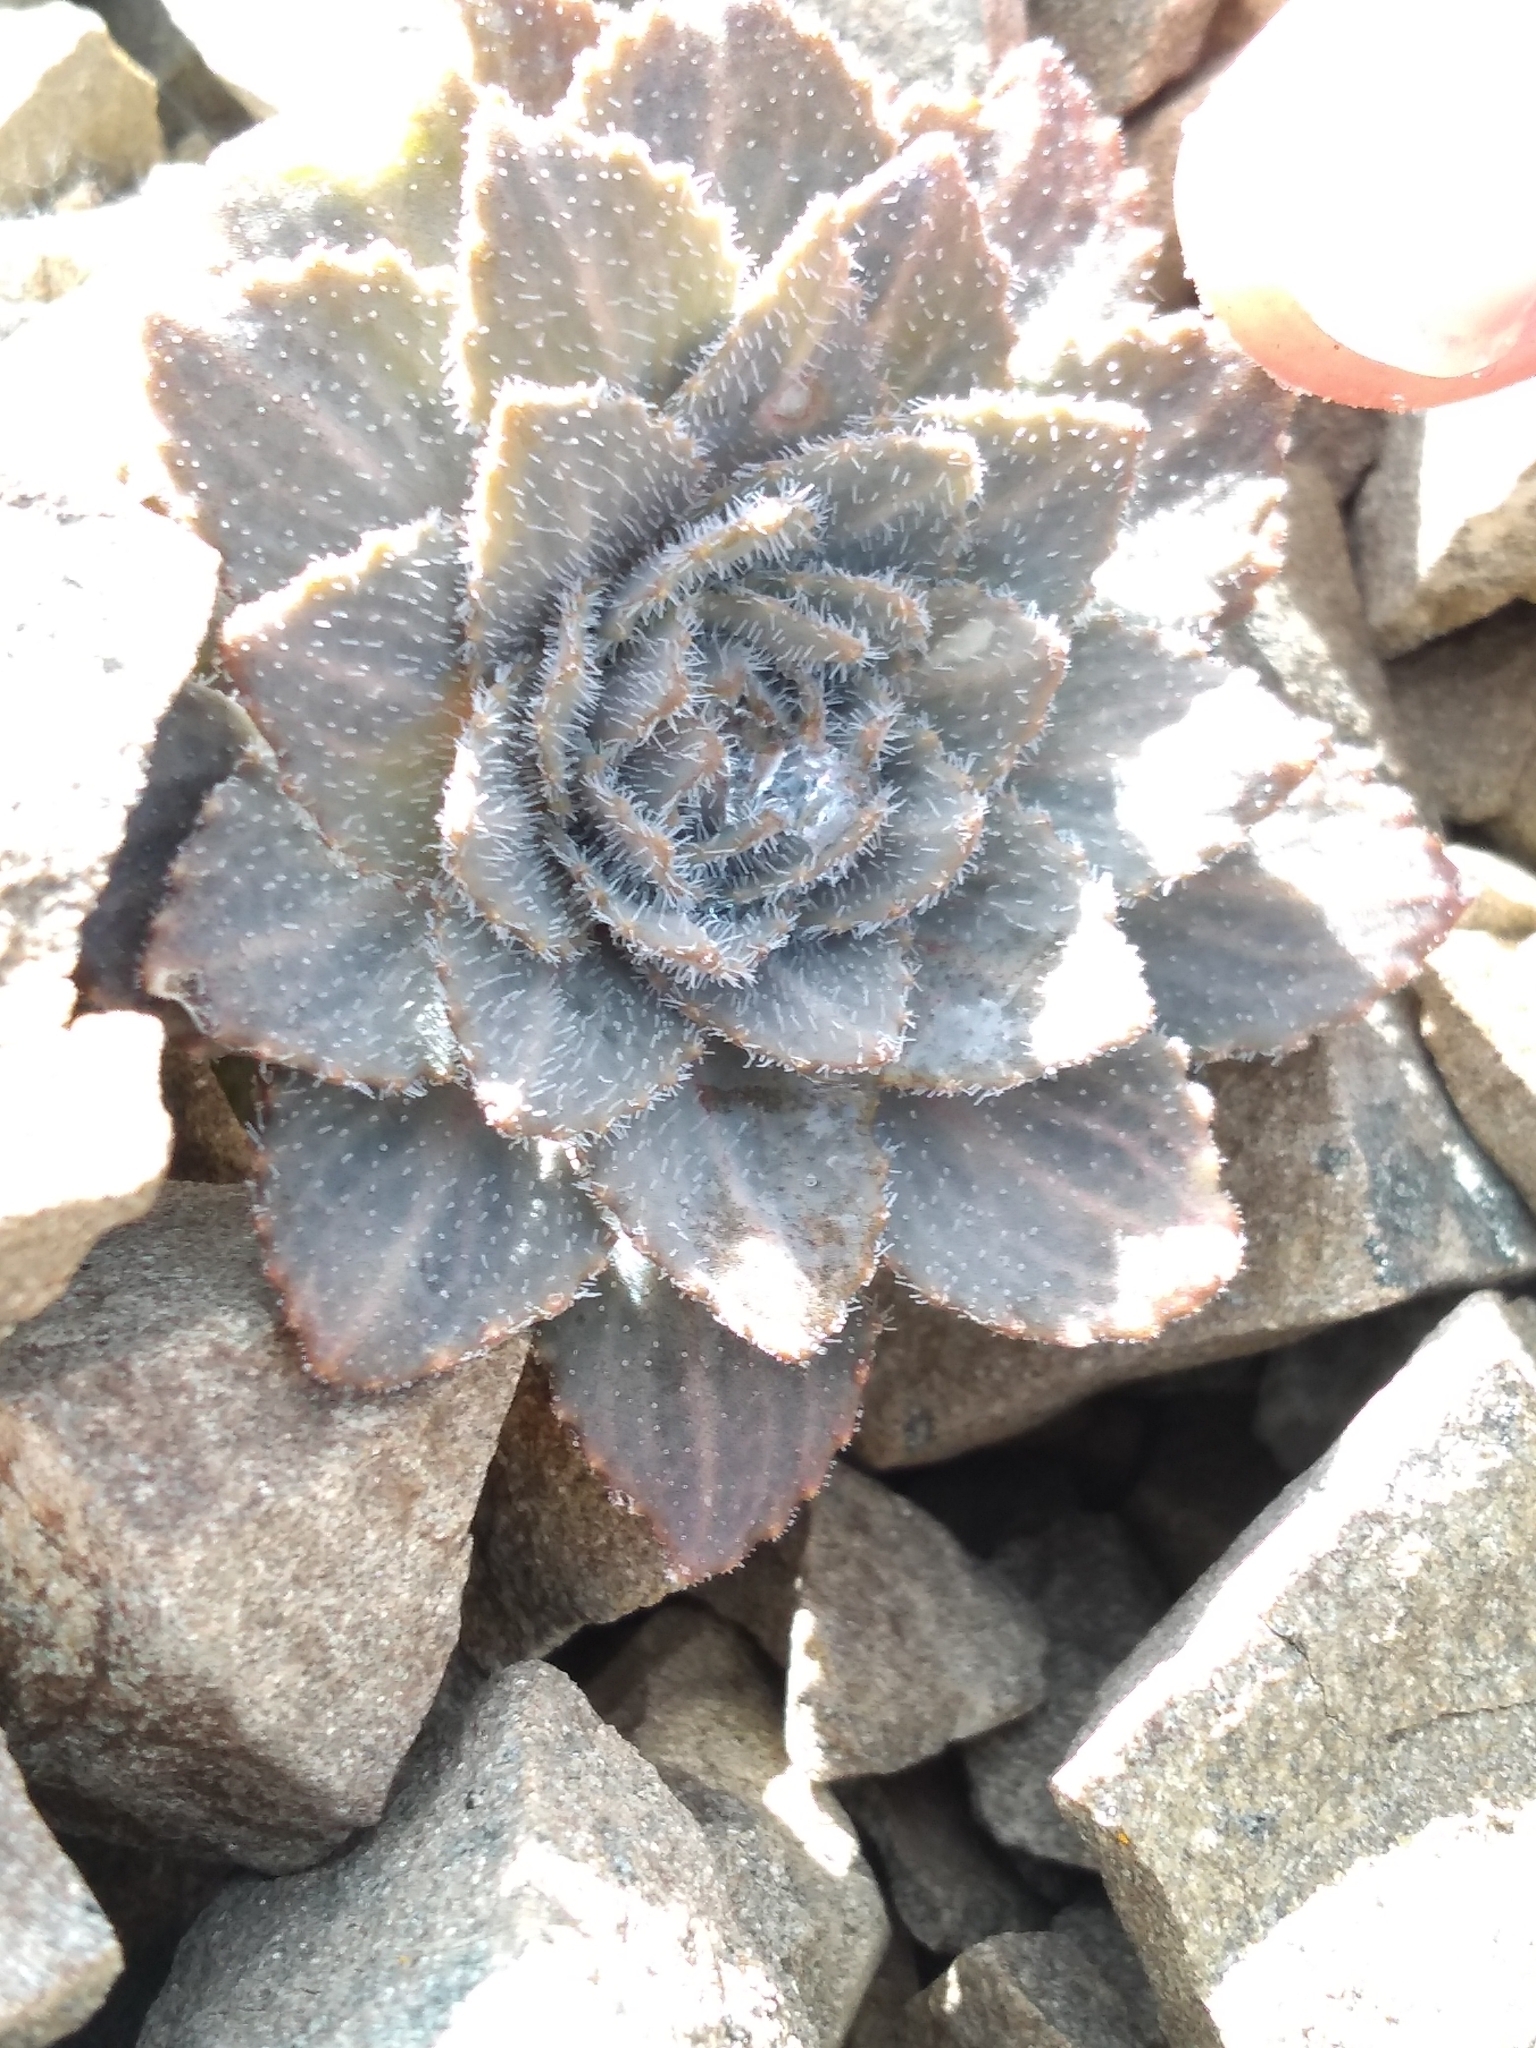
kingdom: Plantae
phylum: Tracheophyta
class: Magnoliopsida
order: Brassicales
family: Brassicaceae
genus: Notothlaspi
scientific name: Notothlaspi rosulatum
